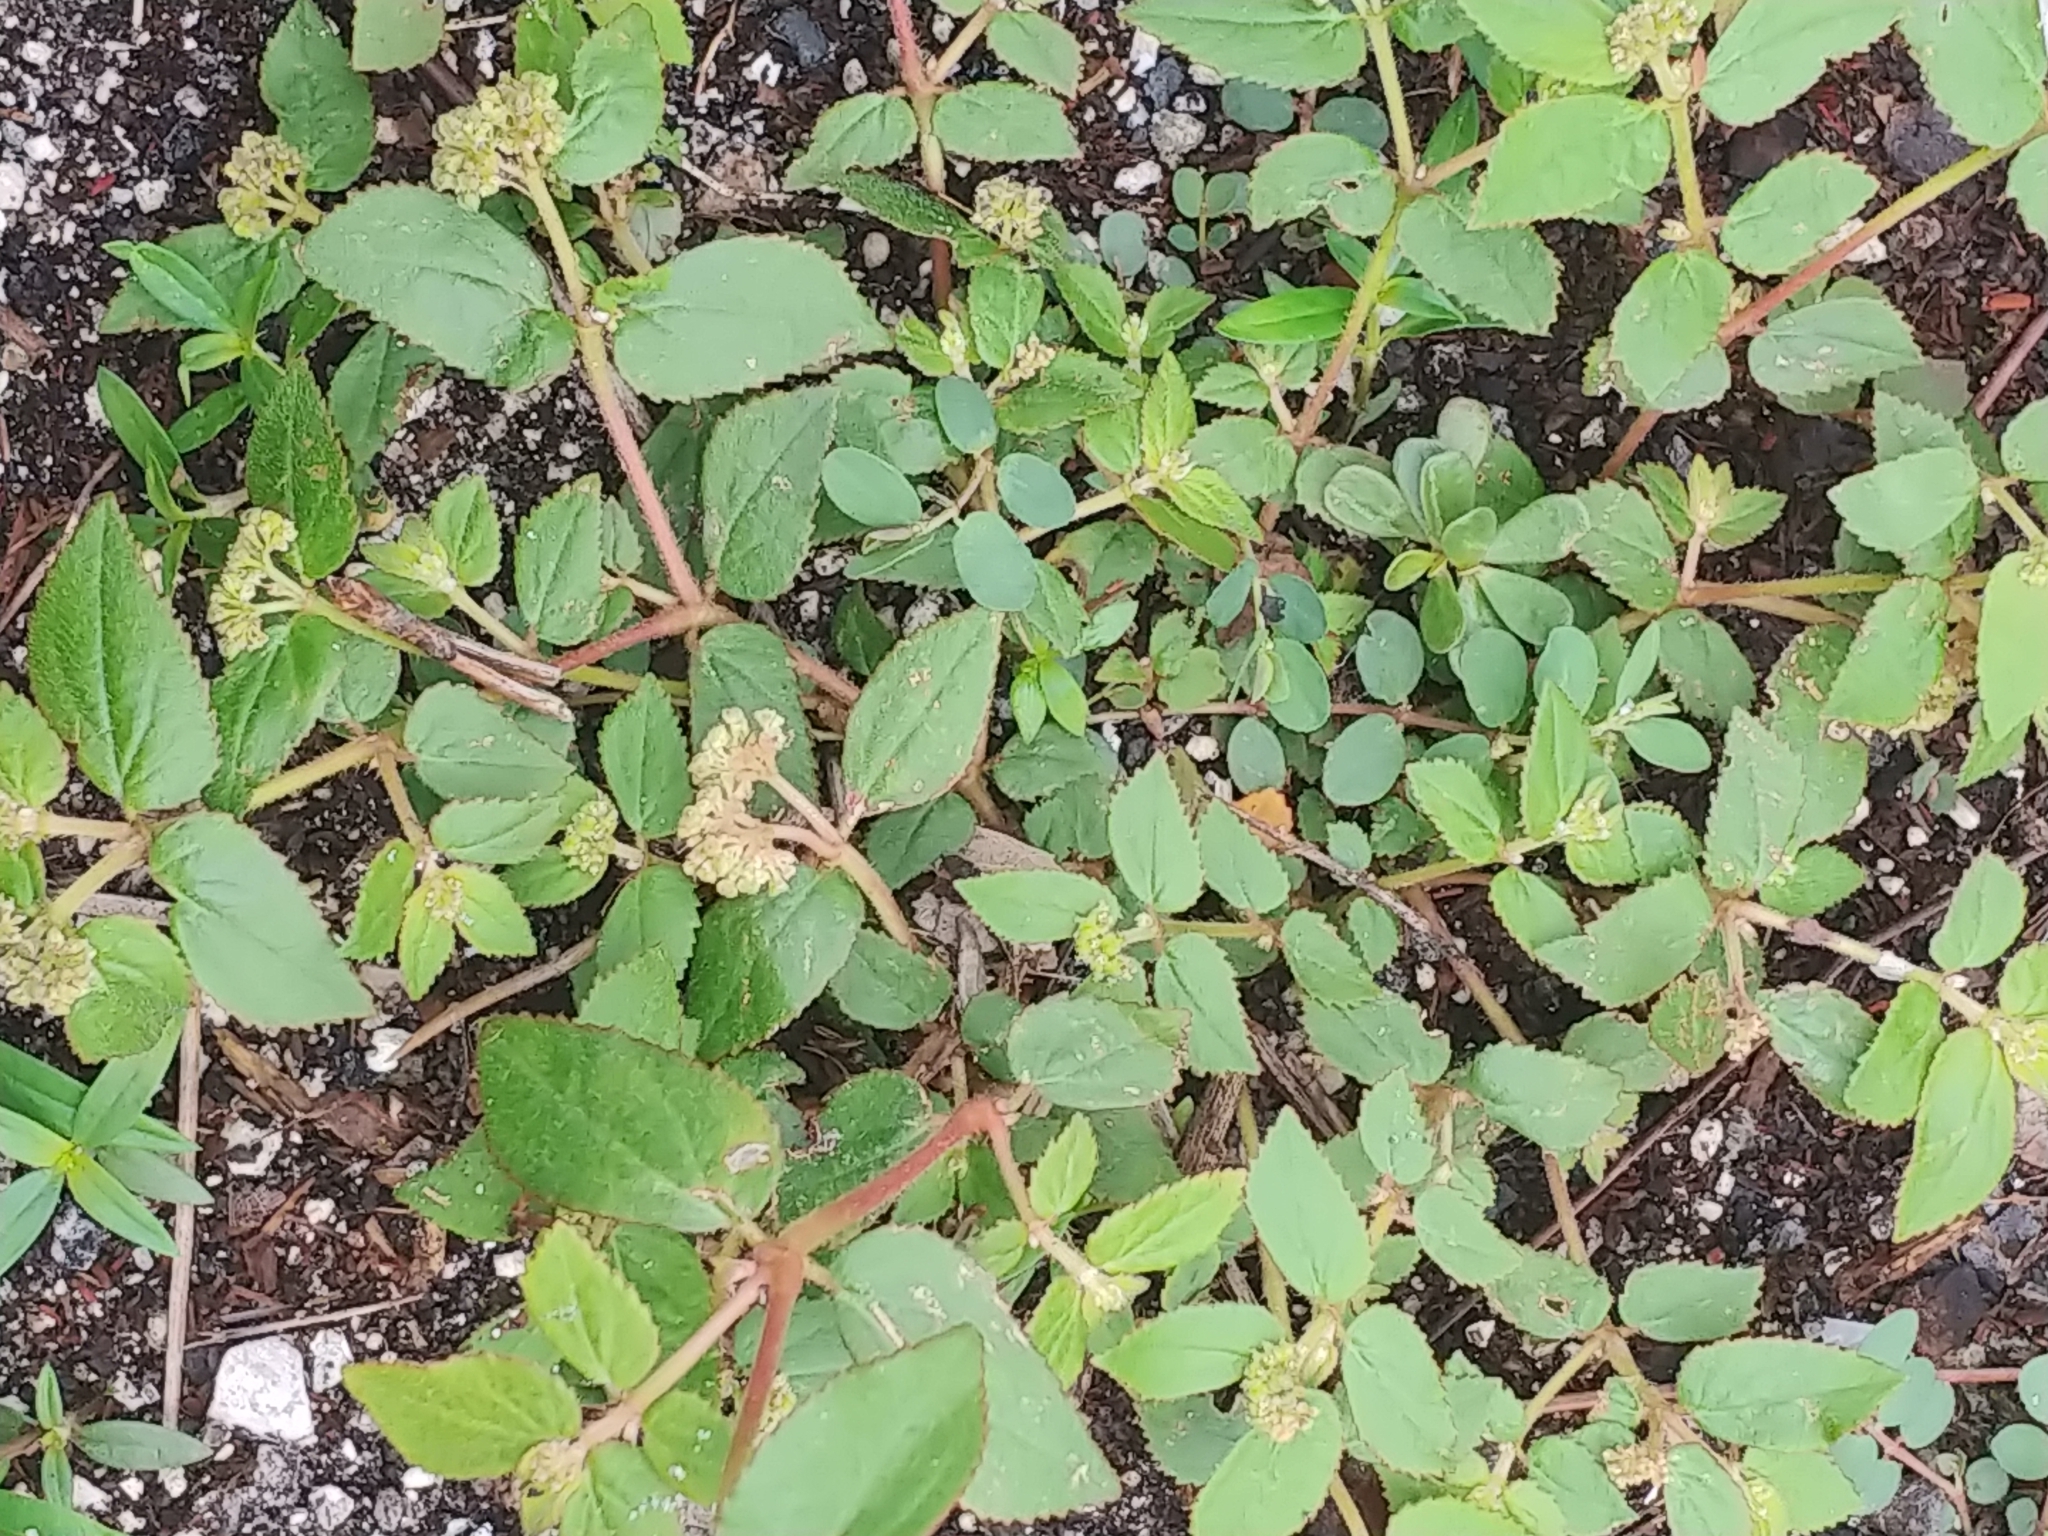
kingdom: Plantae
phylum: Tracheophyta
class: Magnoliopsida
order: Malpighiales
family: Euphorbiaceae
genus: Euphorbia
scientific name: Euphorbia ophthalmica
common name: Florida hammock sandmat
